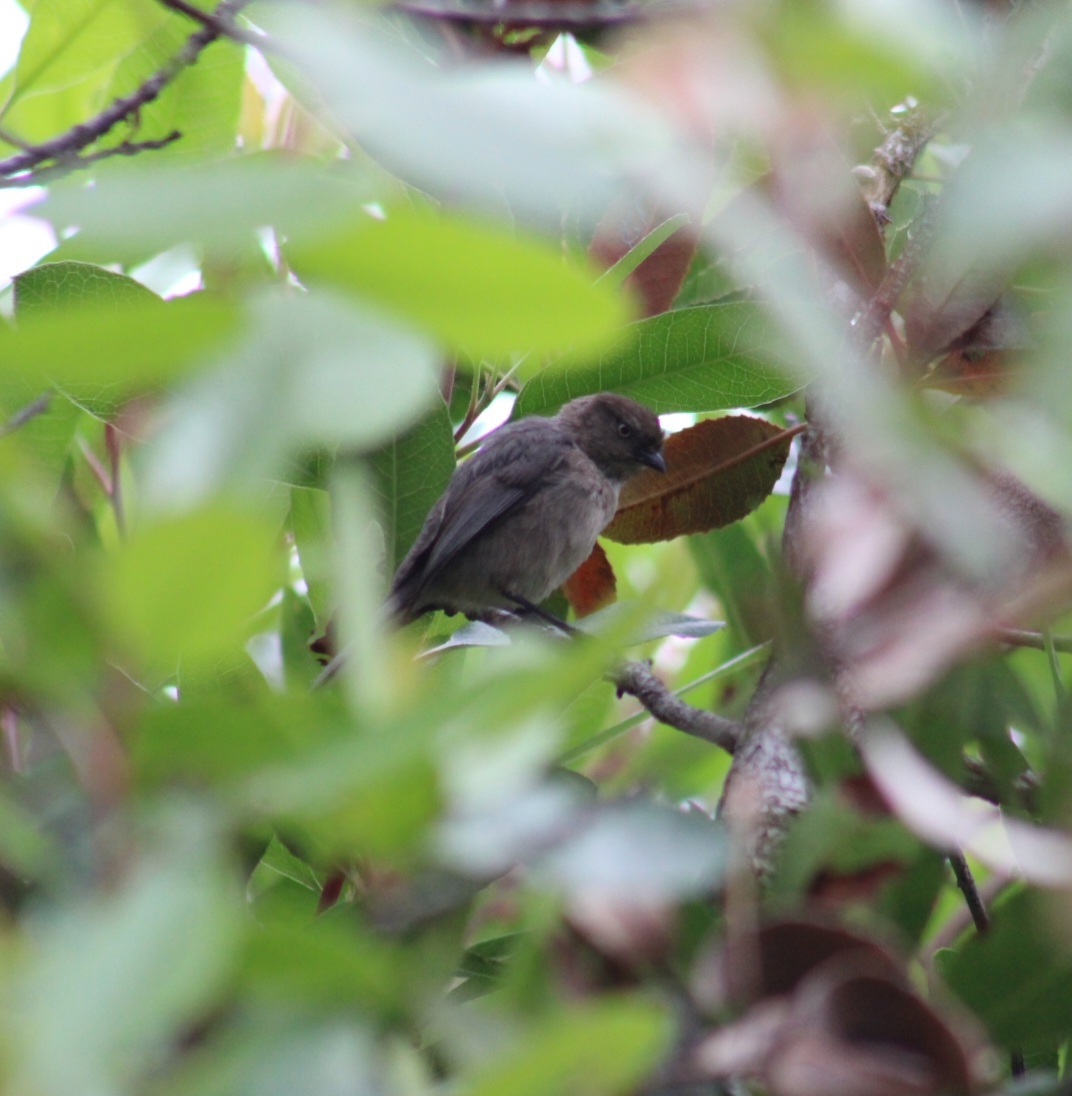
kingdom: Animalia
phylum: Chordata
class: Aves
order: Passeriformes
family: Aegithalidae
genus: Psaltriparus
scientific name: Psaltriparus minimus
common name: American bushtit
